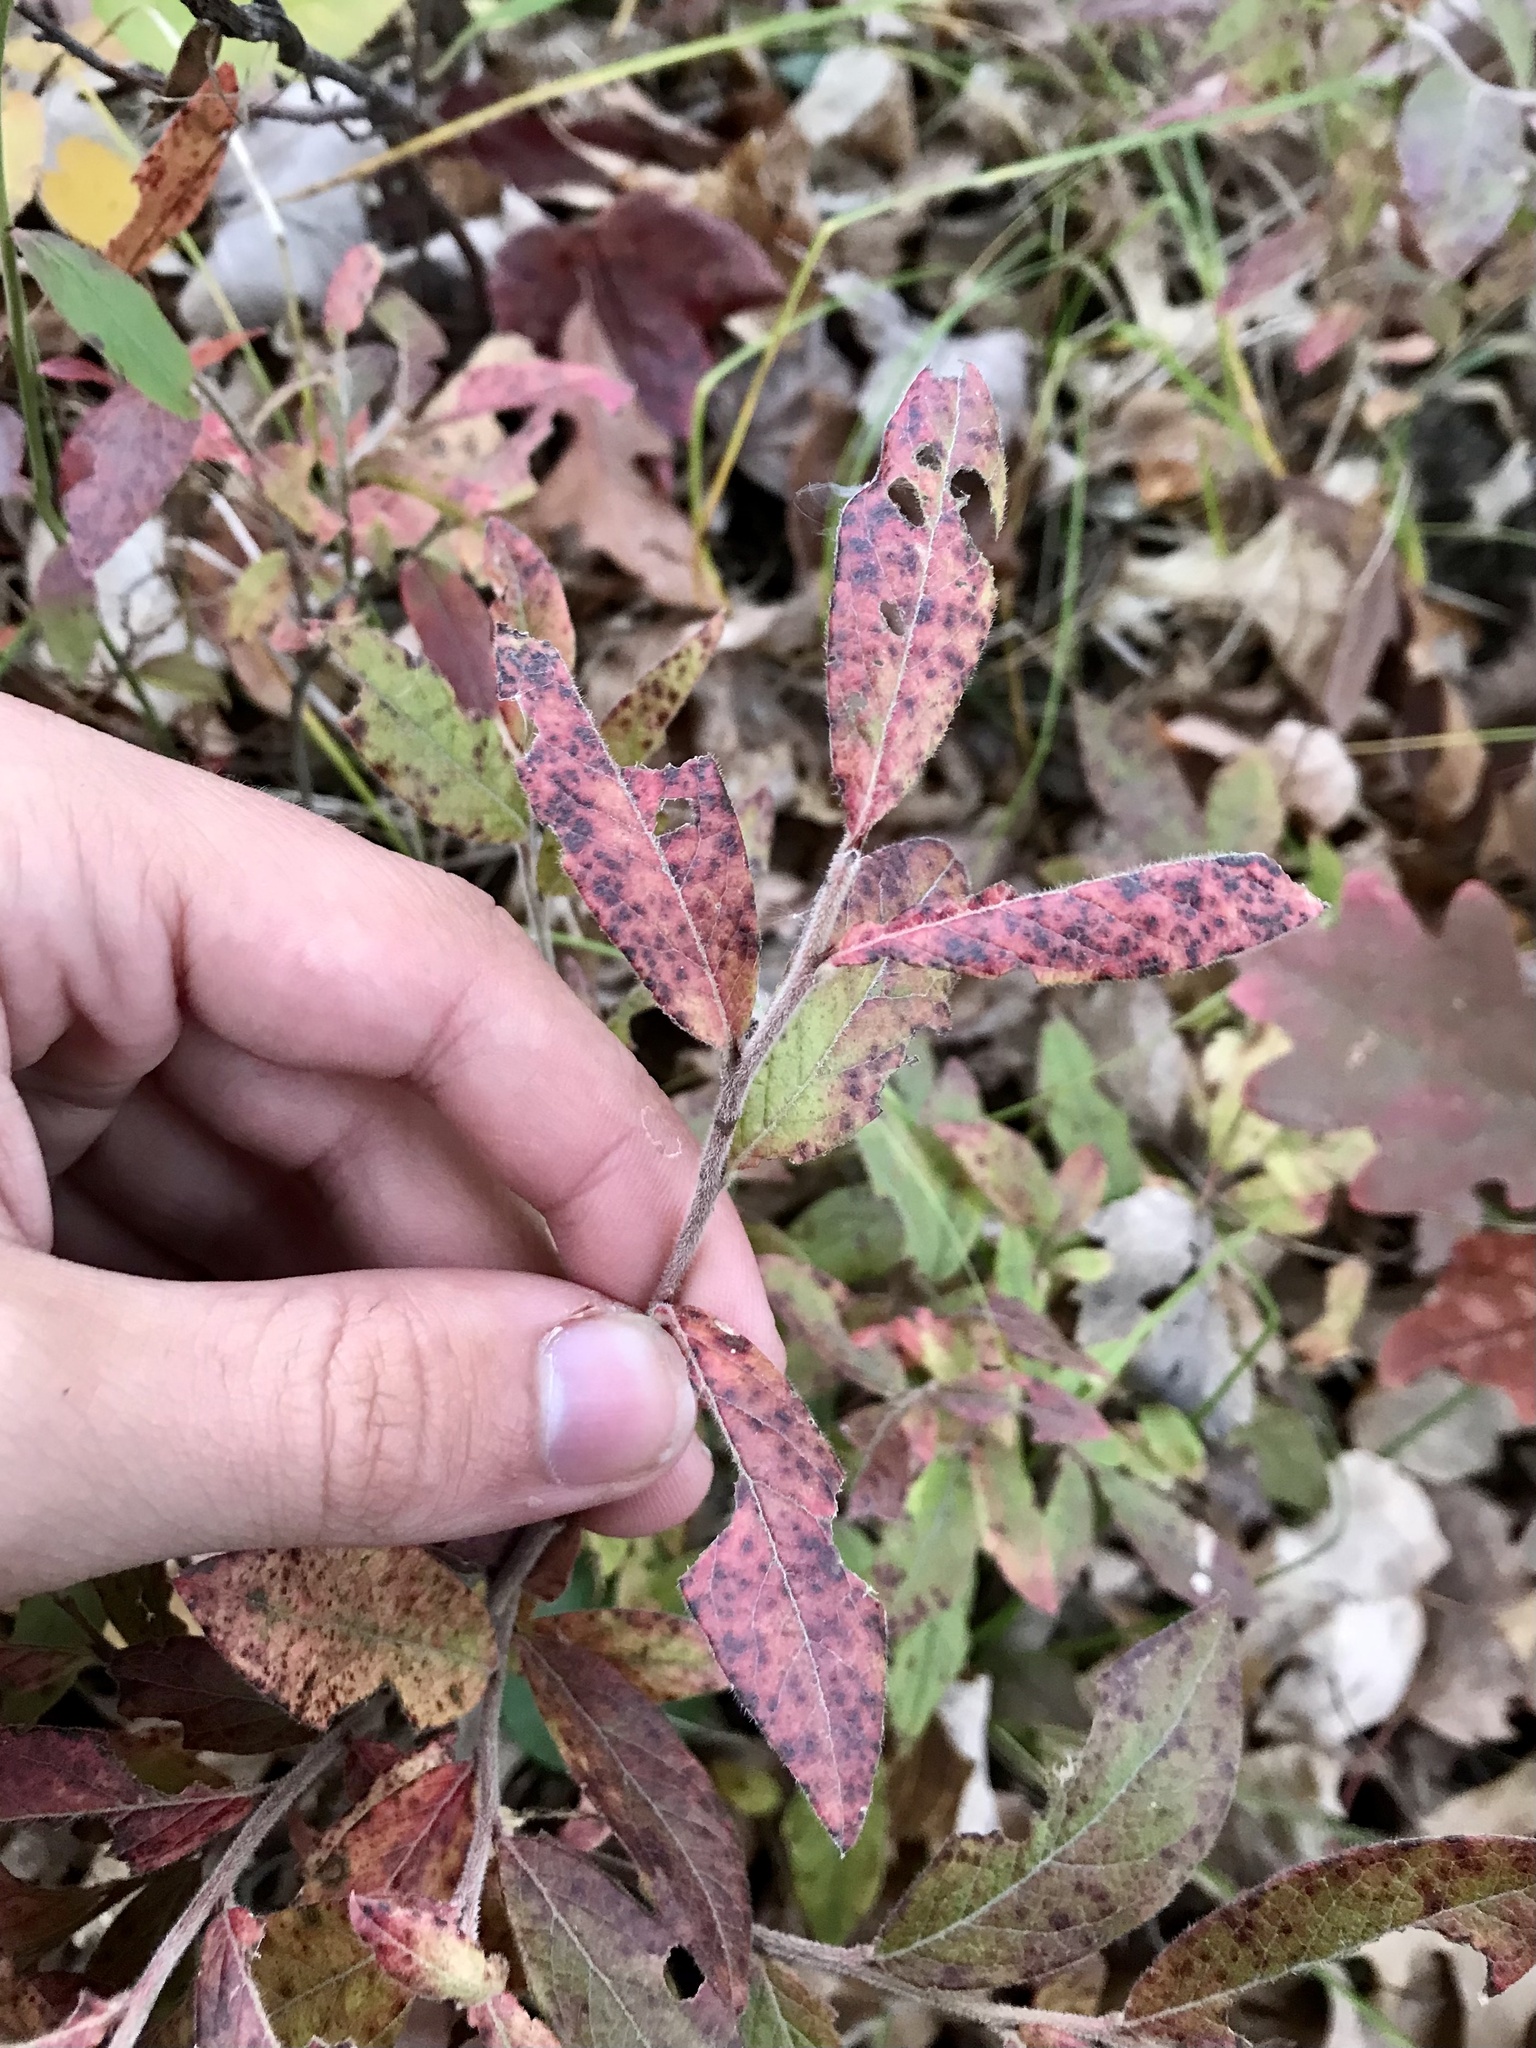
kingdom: Plantae
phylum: Tracheophyta
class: Magnoliopsida
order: Ericales
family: Ericaceae
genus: Vaccinium
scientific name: Vaccinium myrtilloides
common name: Canada blueberry
